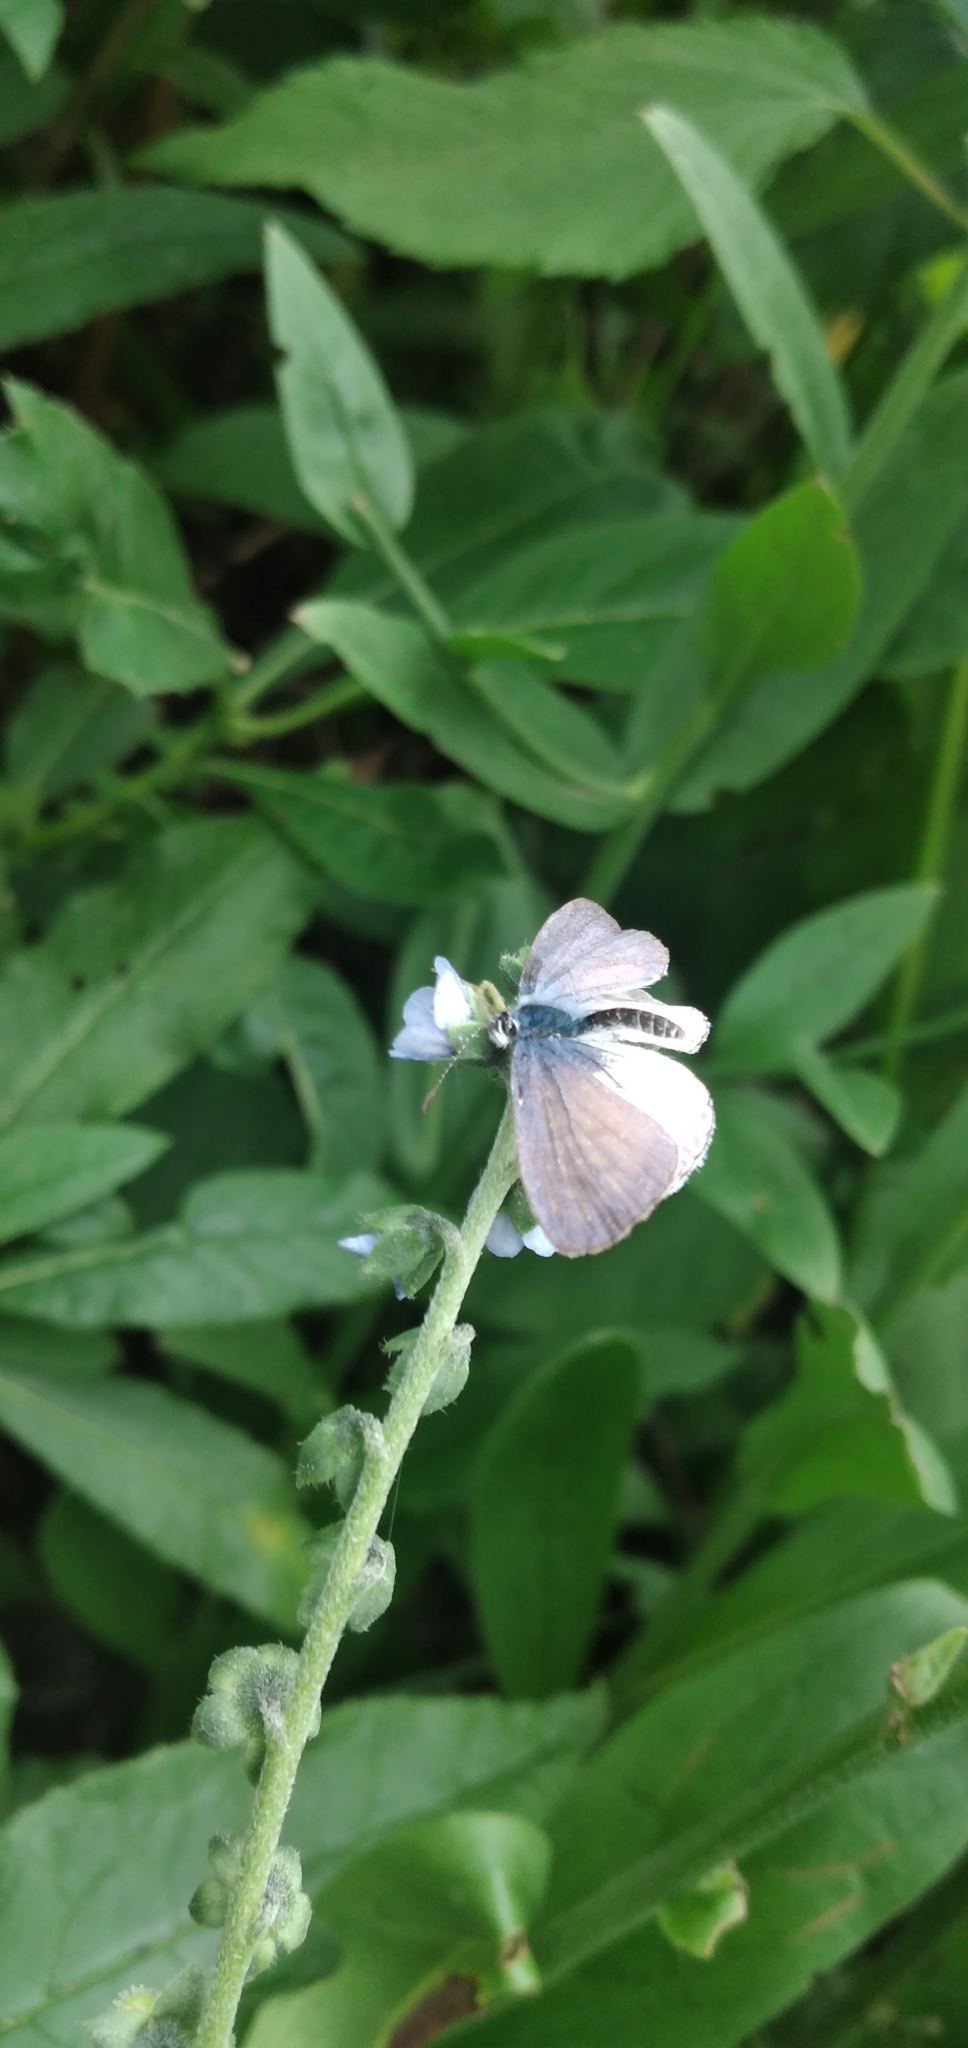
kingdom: Animalia
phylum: Arthropoda
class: Insecta
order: Lepidoptera
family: Lycaenidae
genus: Leptotes
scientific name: Leptotes cassius
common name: Cassius blue
